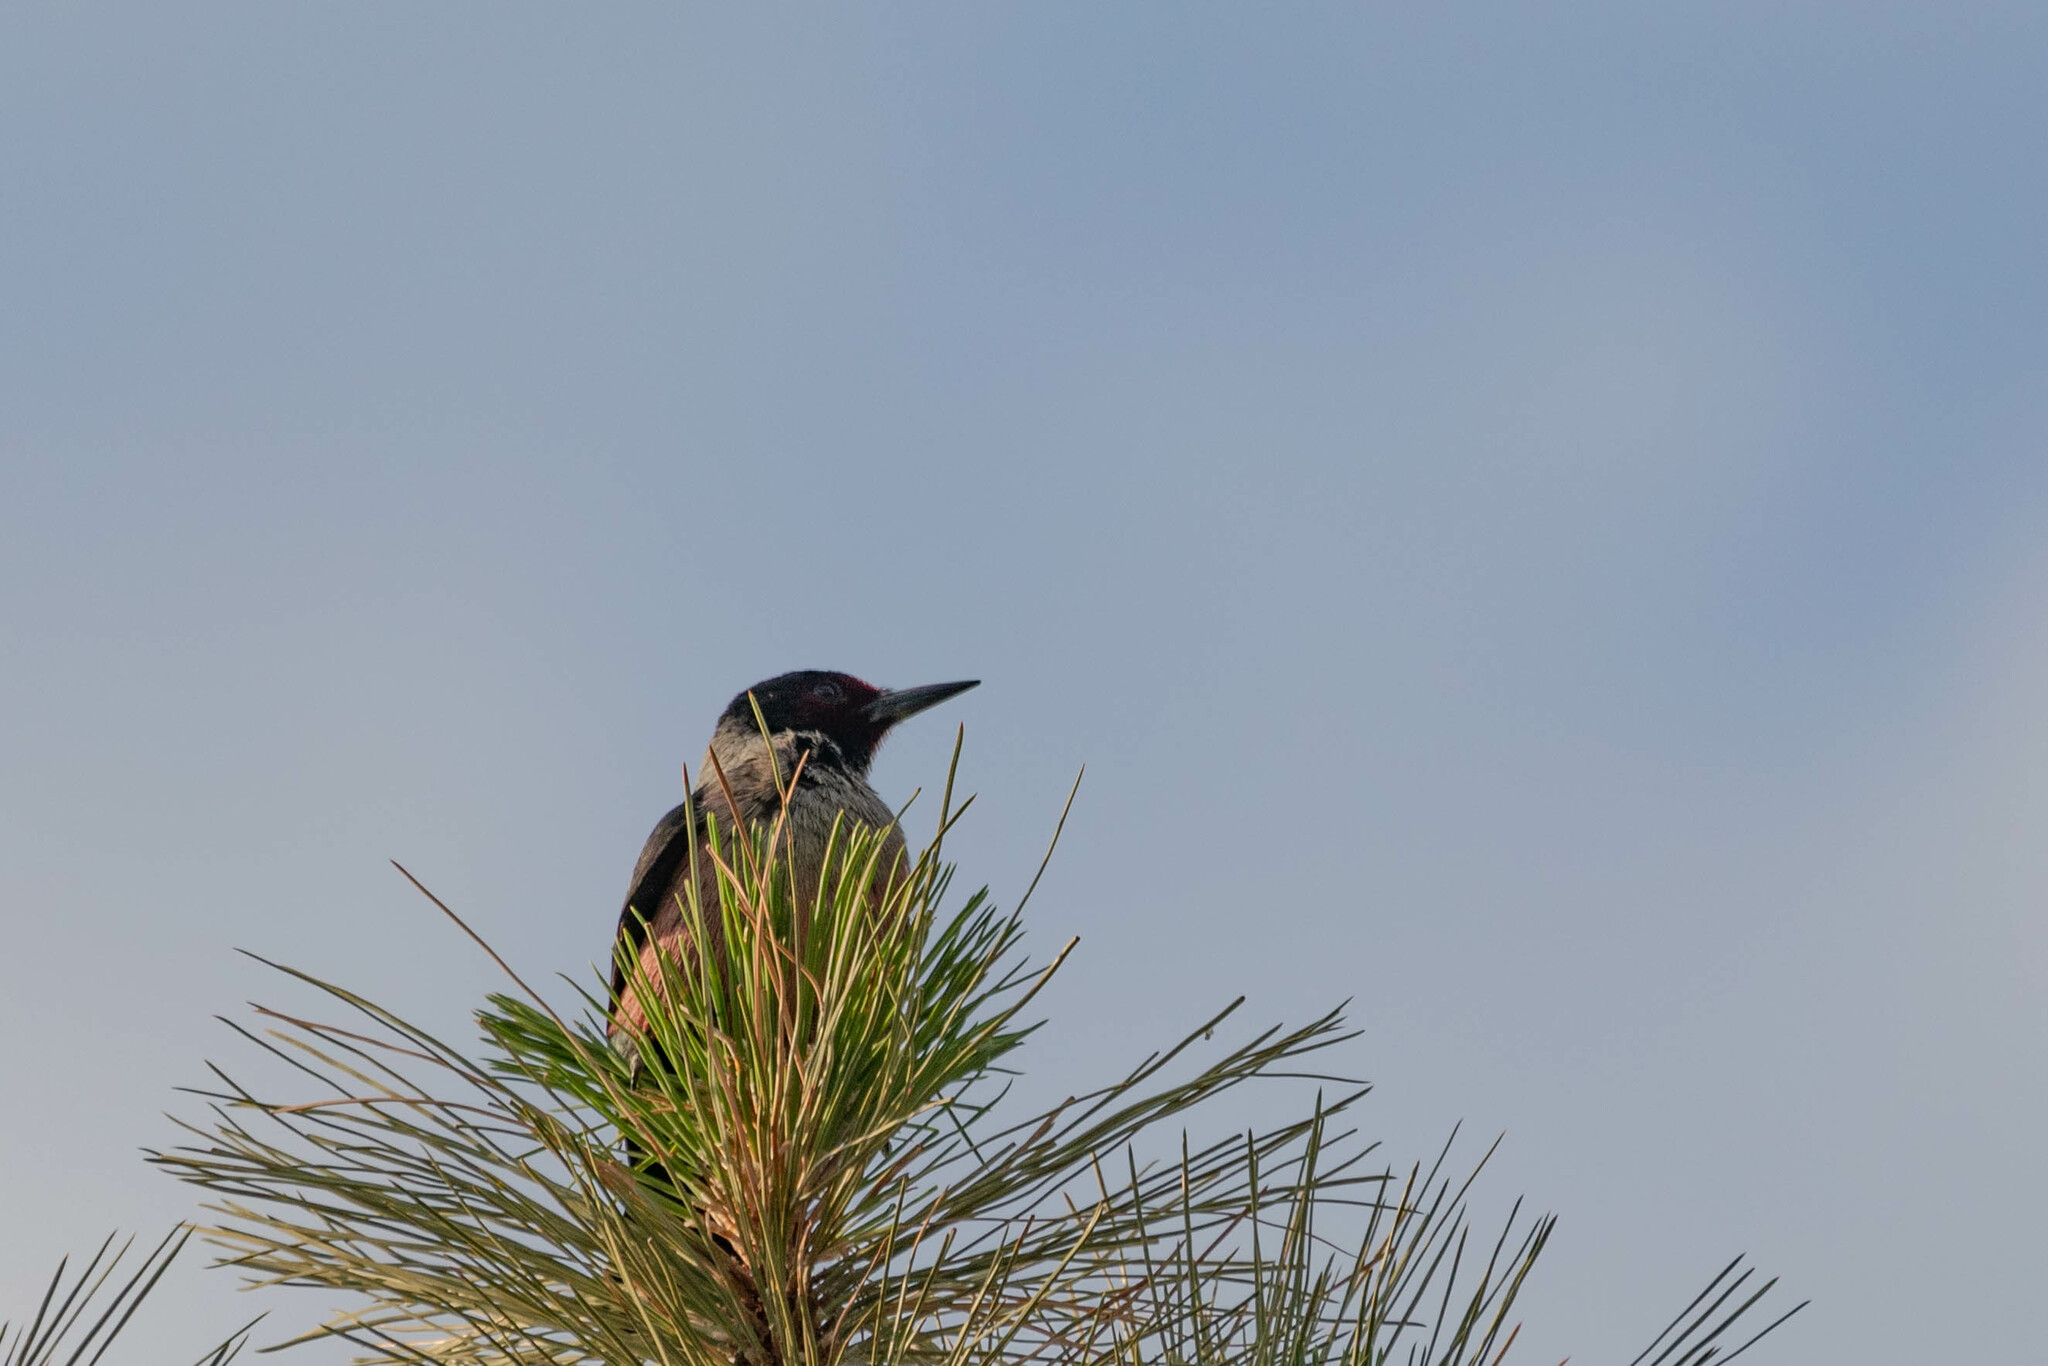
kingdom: Animalia
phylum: Chordata
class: Aves
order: Piciformes
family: Picidae
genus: Melanerpes
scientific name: Melanerpes lewis
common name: Lewis's woodpecker
